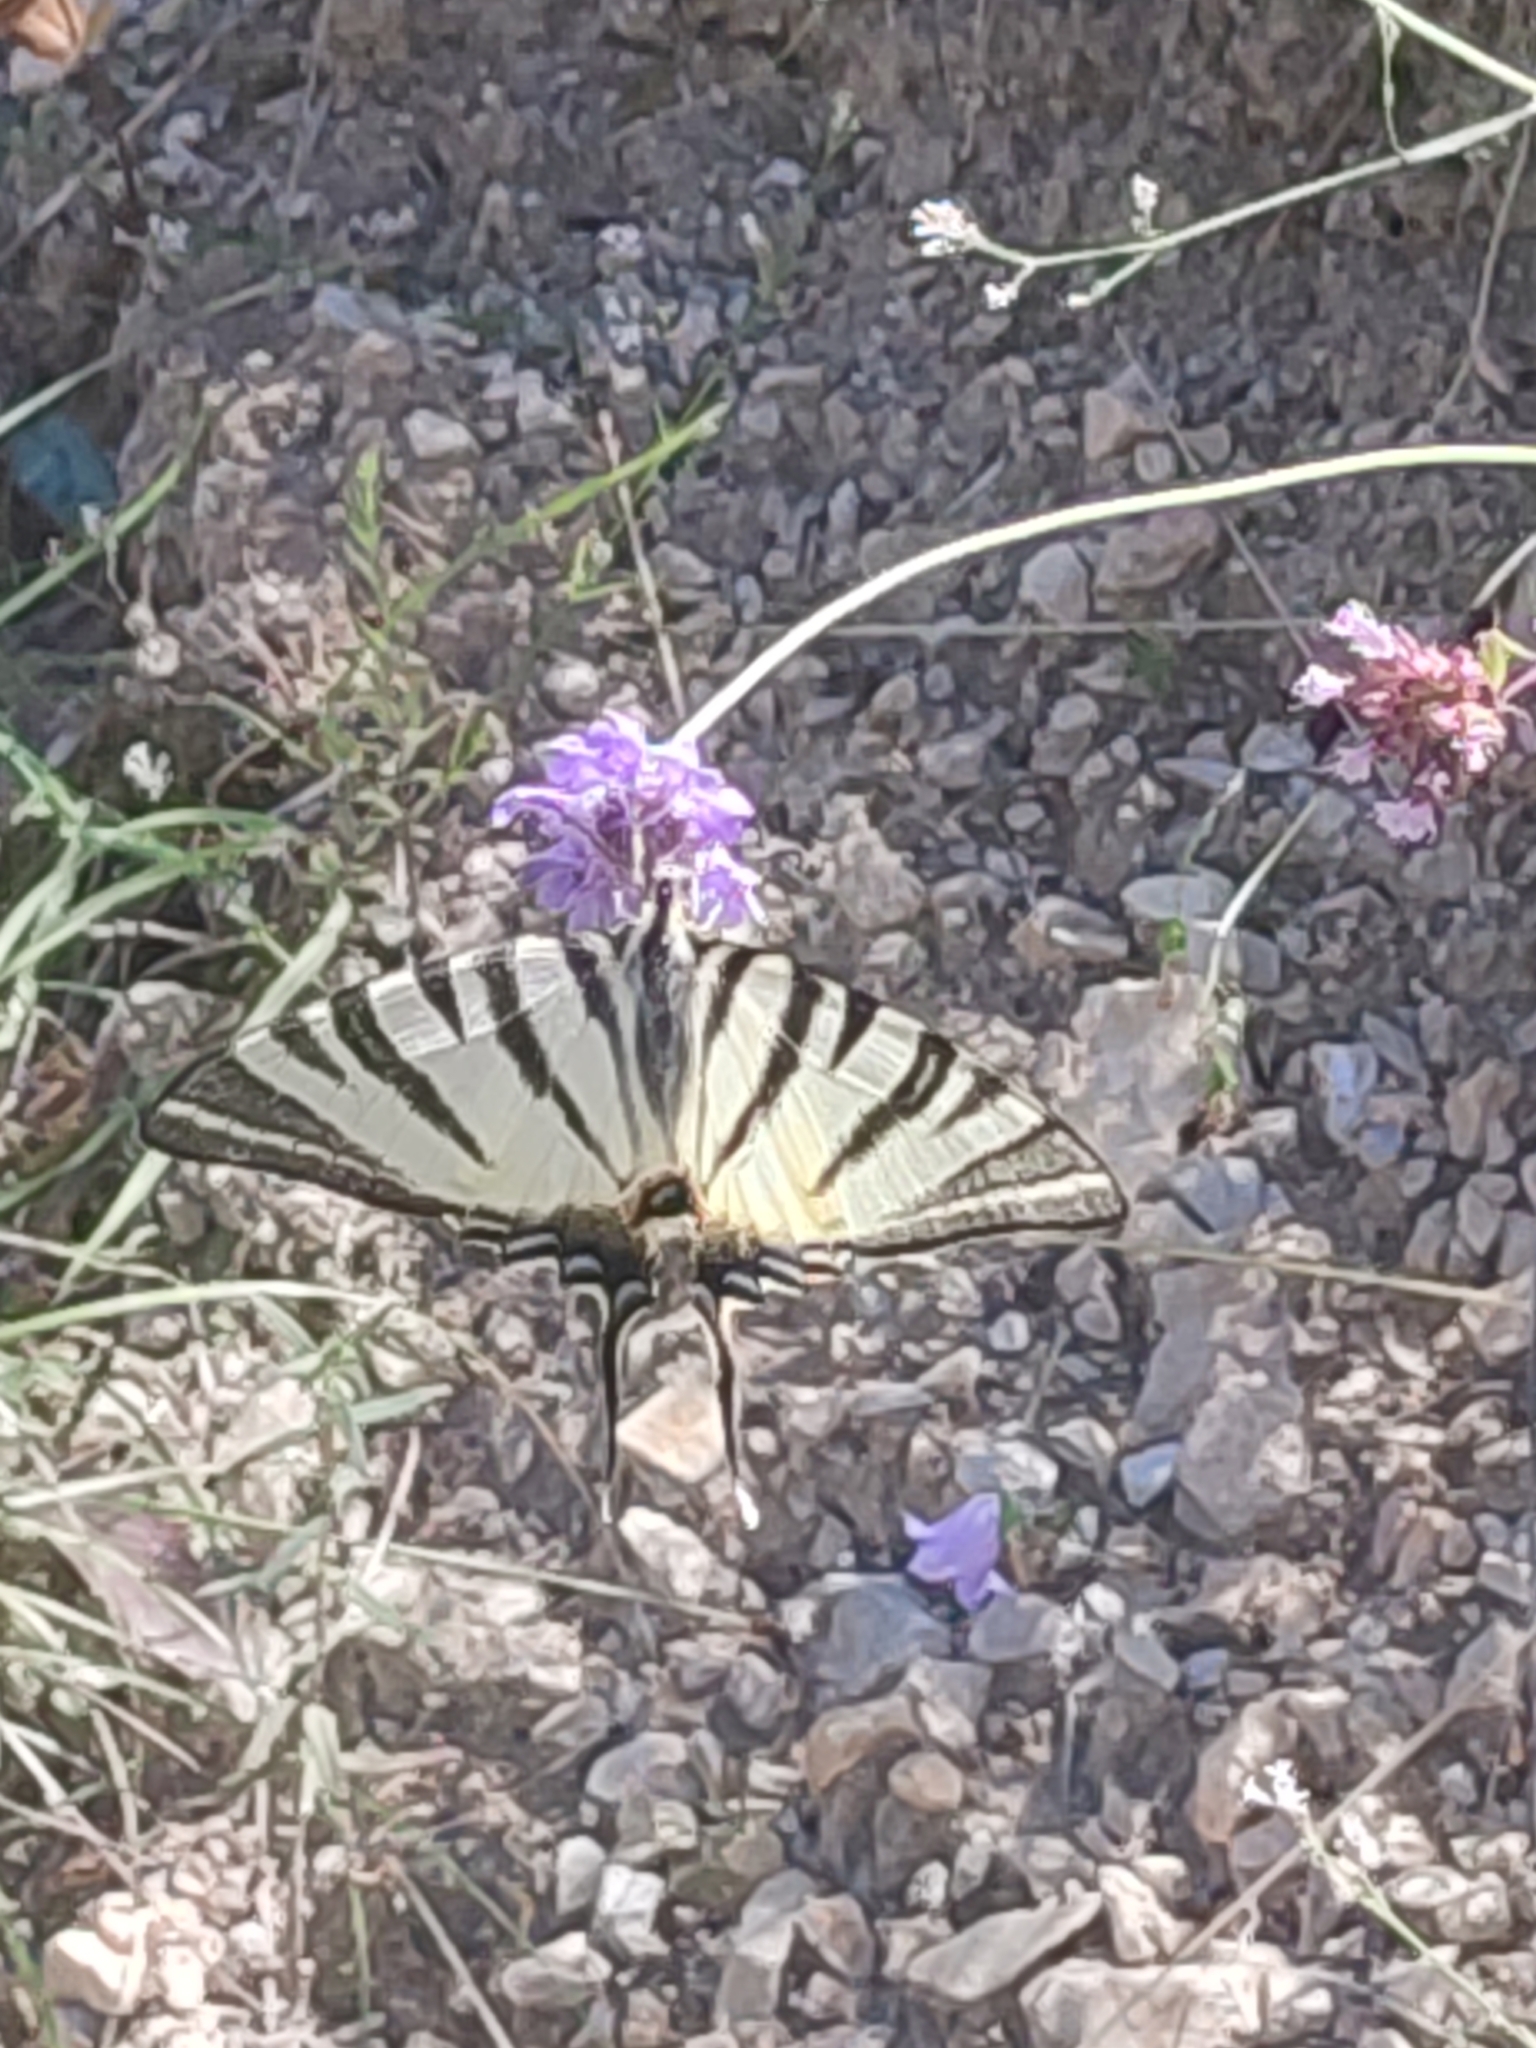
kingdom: Animalia
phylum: Arthropoda
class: Insecta
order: Lepidoptera
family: Papilionidae
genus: Iphiclides
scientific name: Iphiclides podalirius
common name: Scarce swallowtail
